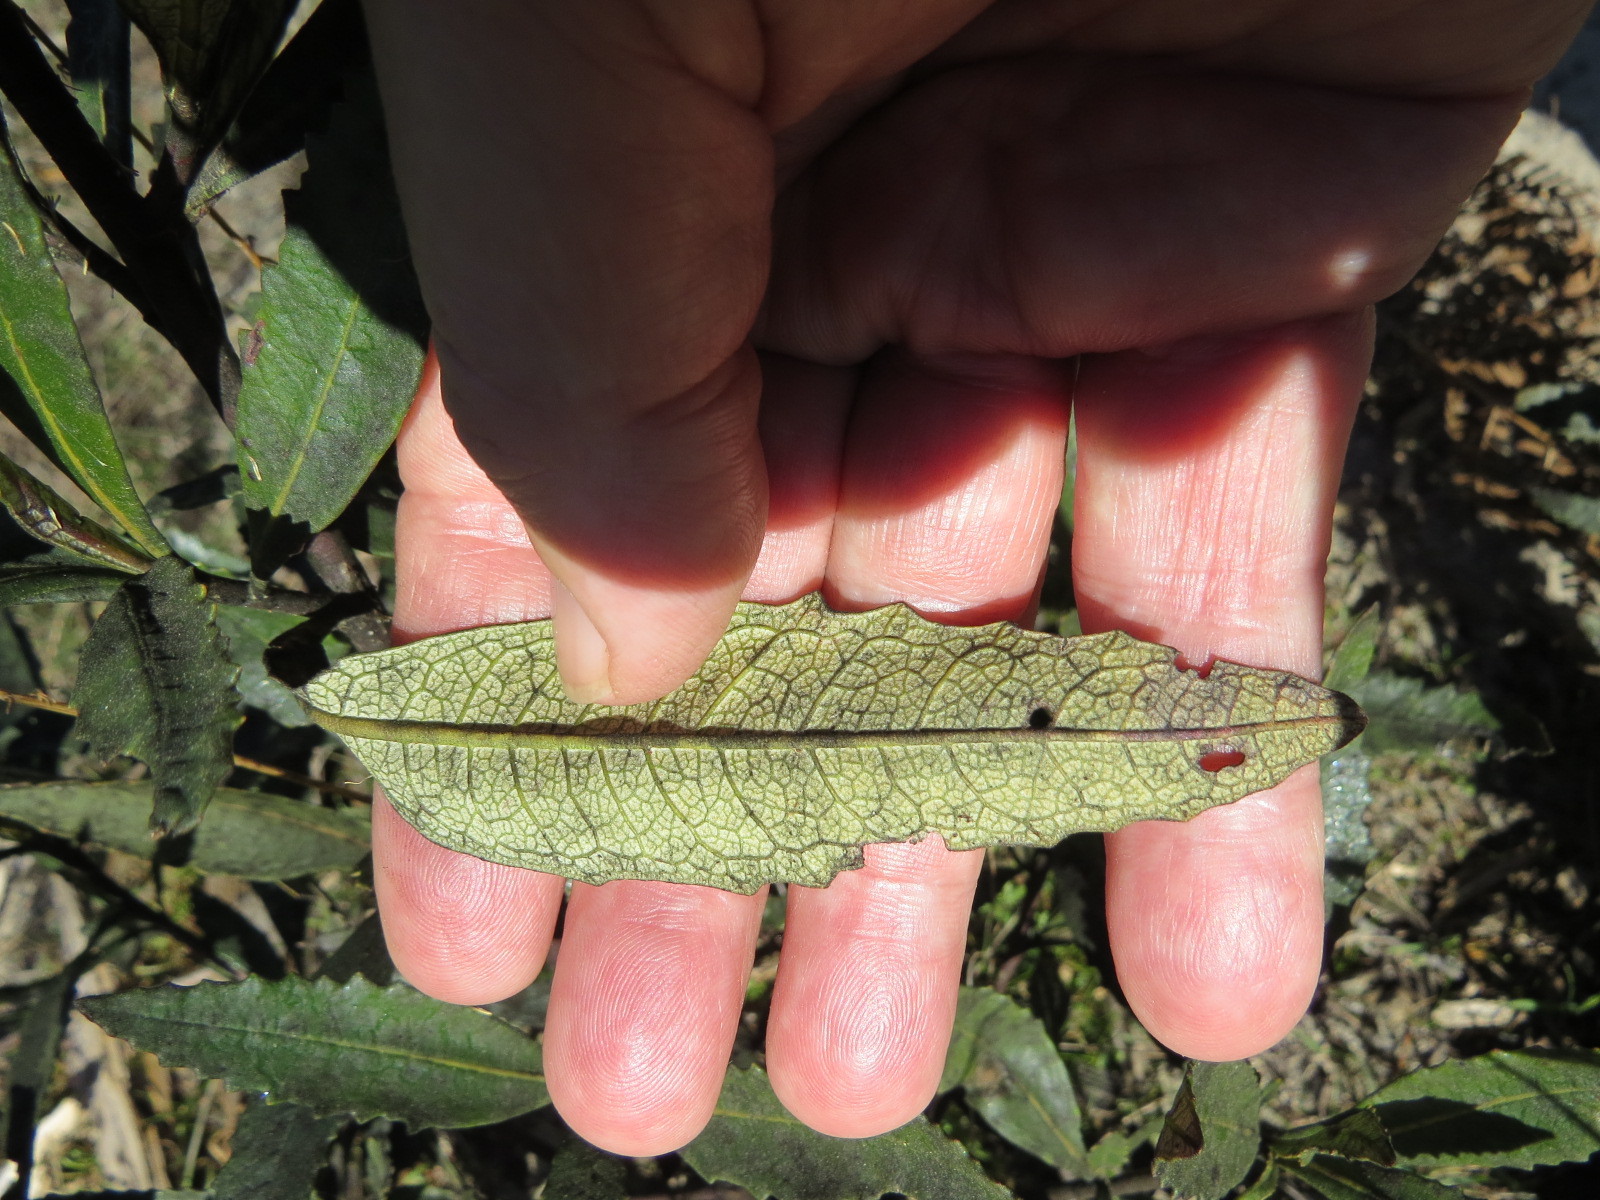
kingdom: Plantae
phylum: Tracheophyta
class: Magnoliopsida
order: Boraginales
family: Namaceae
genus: Eriodictyon
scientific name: Eriodictyon californicum
